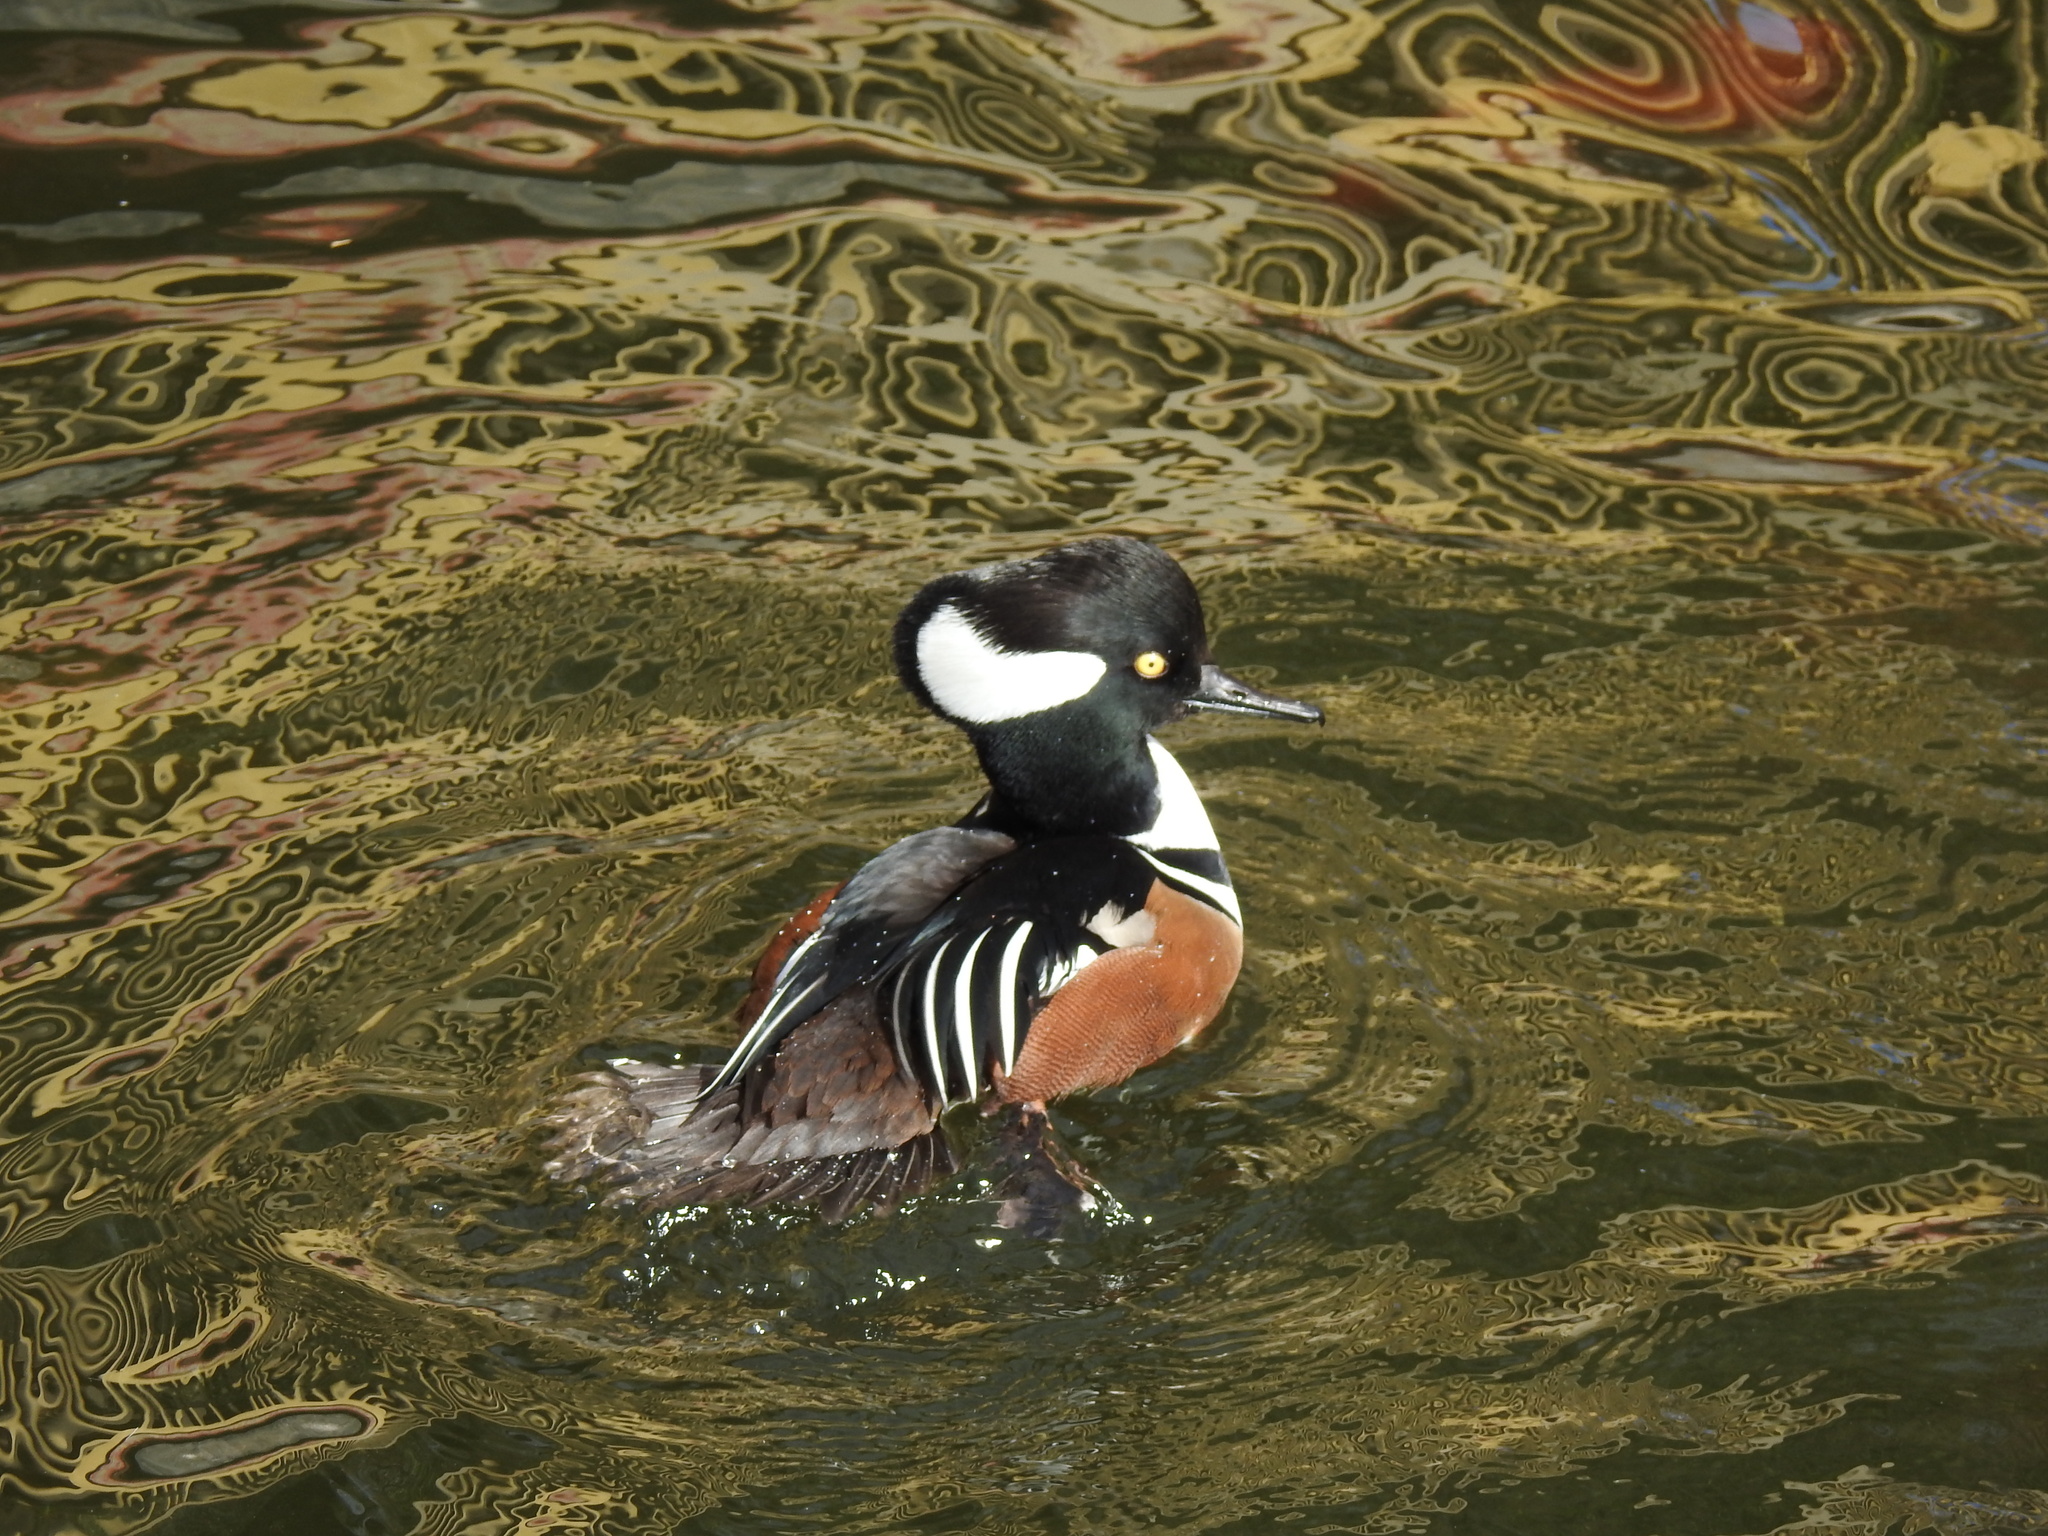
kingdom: Animalia
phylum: Chordata
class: Aves
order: Anseriformes
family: Anatidae
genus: Lophodytes
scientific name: Lophodytes cucullatus
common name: Hooded merganser
